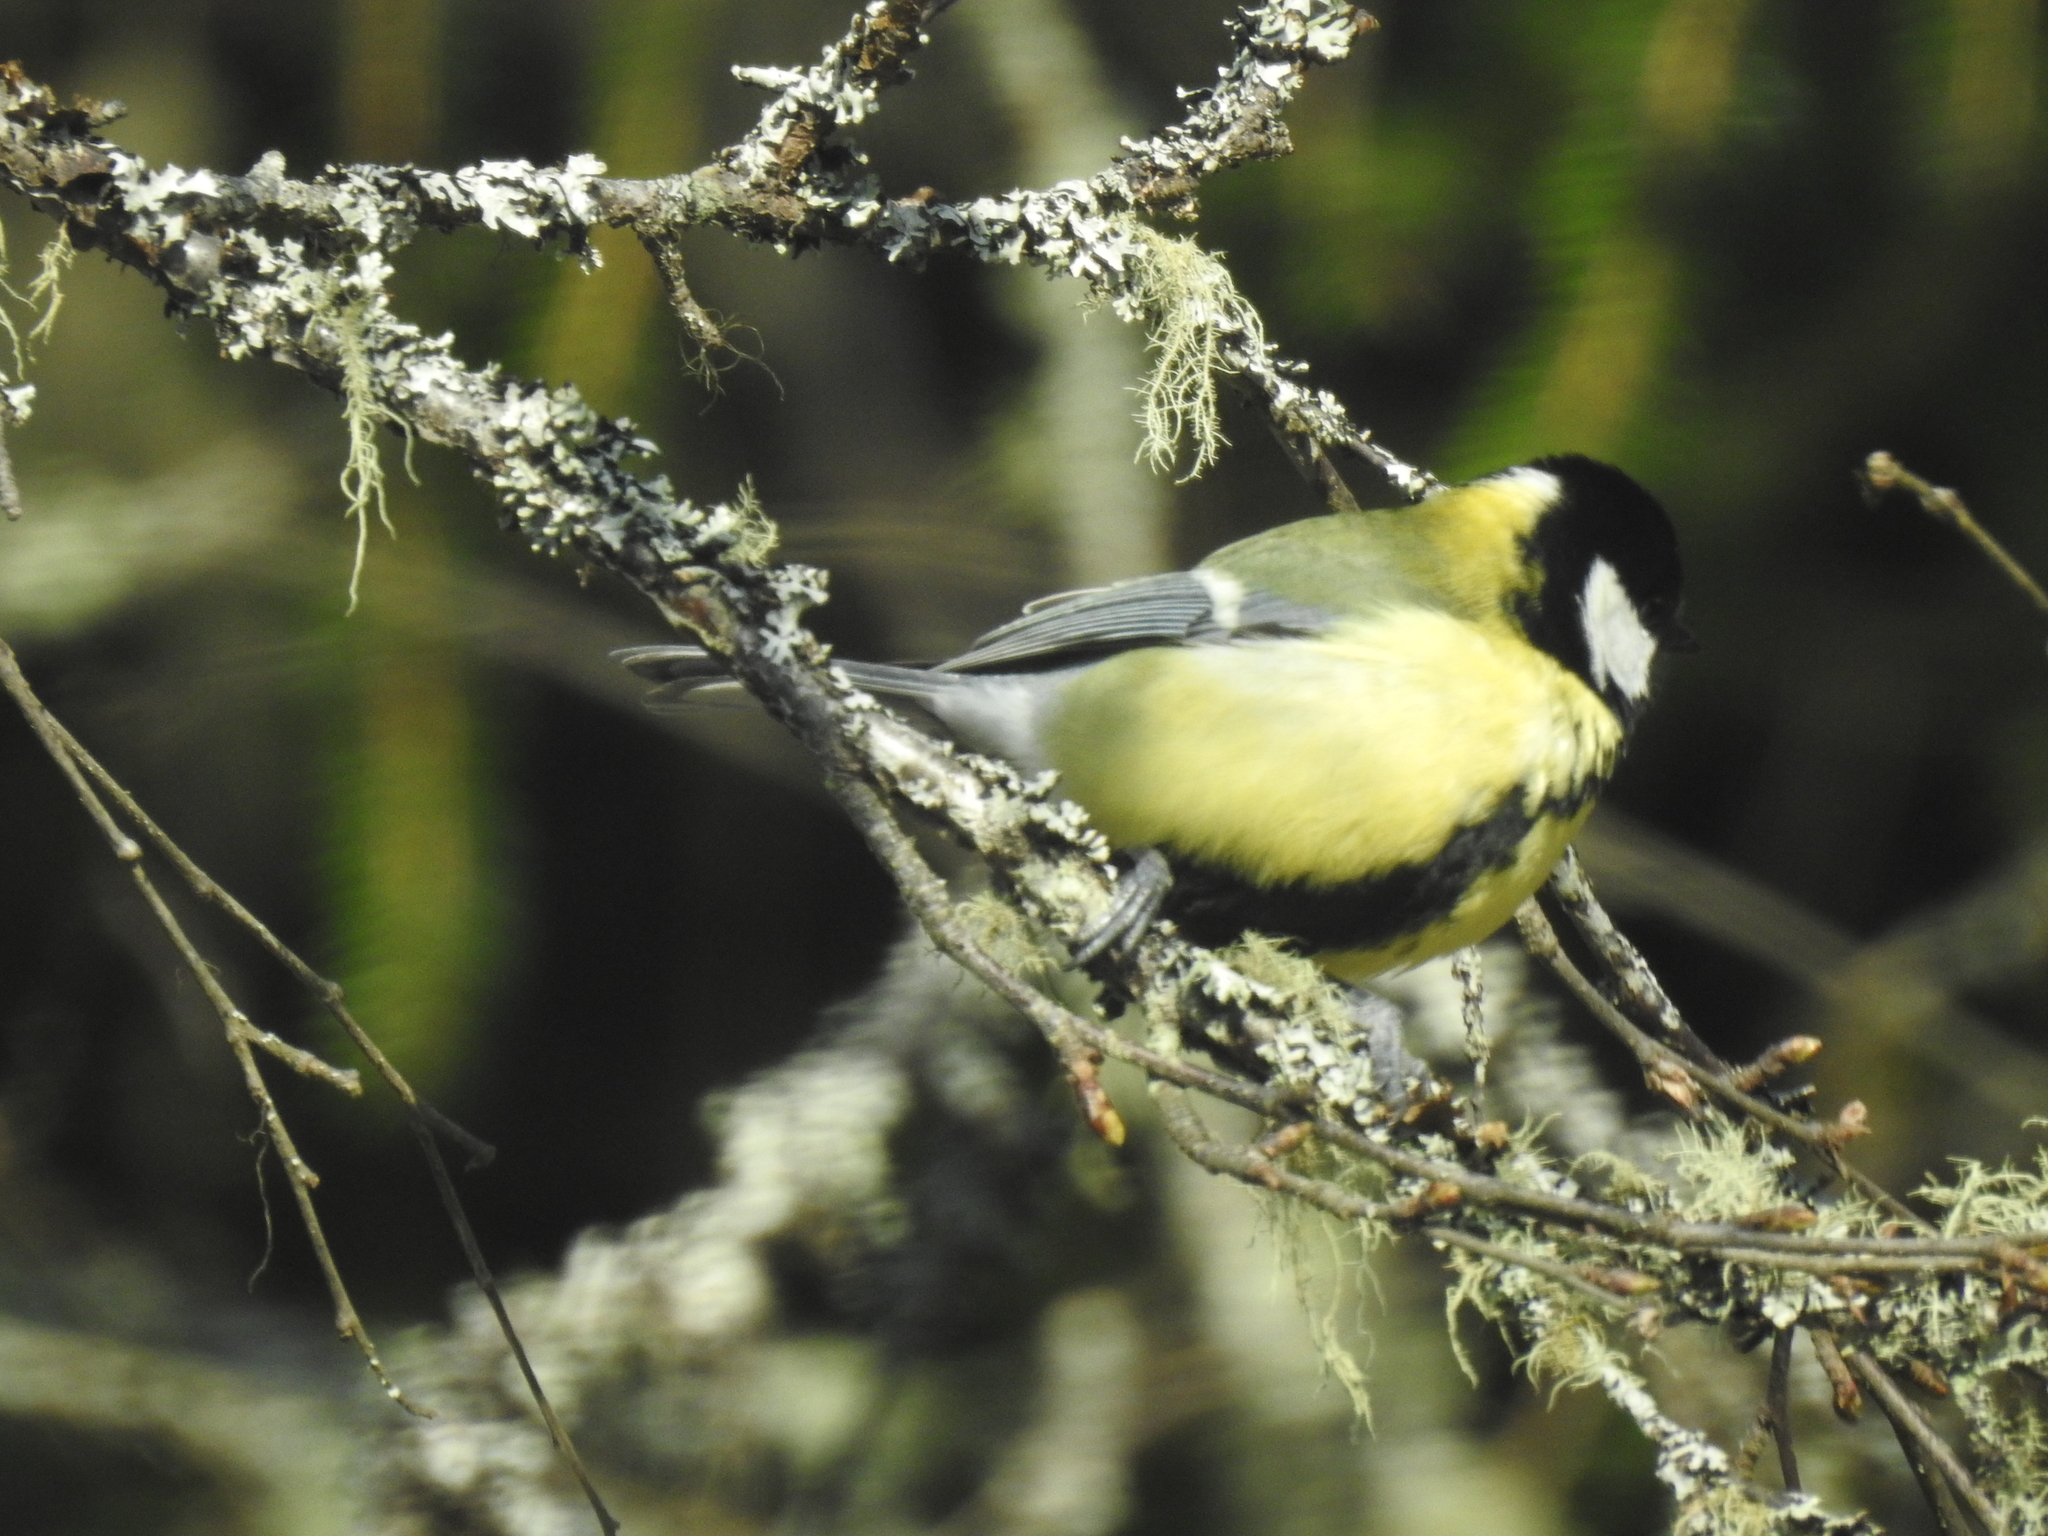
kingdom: Animalia
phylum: Chordata
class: Aves
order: Passeriformes
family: Paridae
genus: Parus
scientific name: Parus major
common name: Great tit
